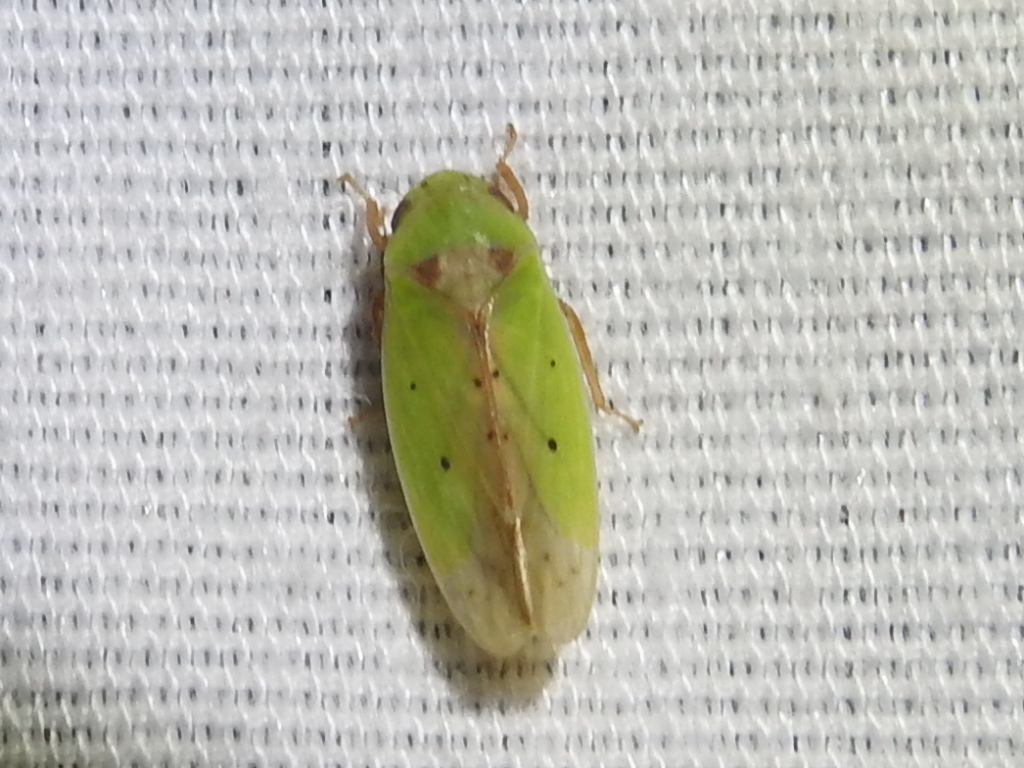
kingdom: Animalia
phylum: Arthropoda
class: Insecta
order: Hemiptera
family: Cicadellidae
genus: Ponana
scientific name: Ponana
